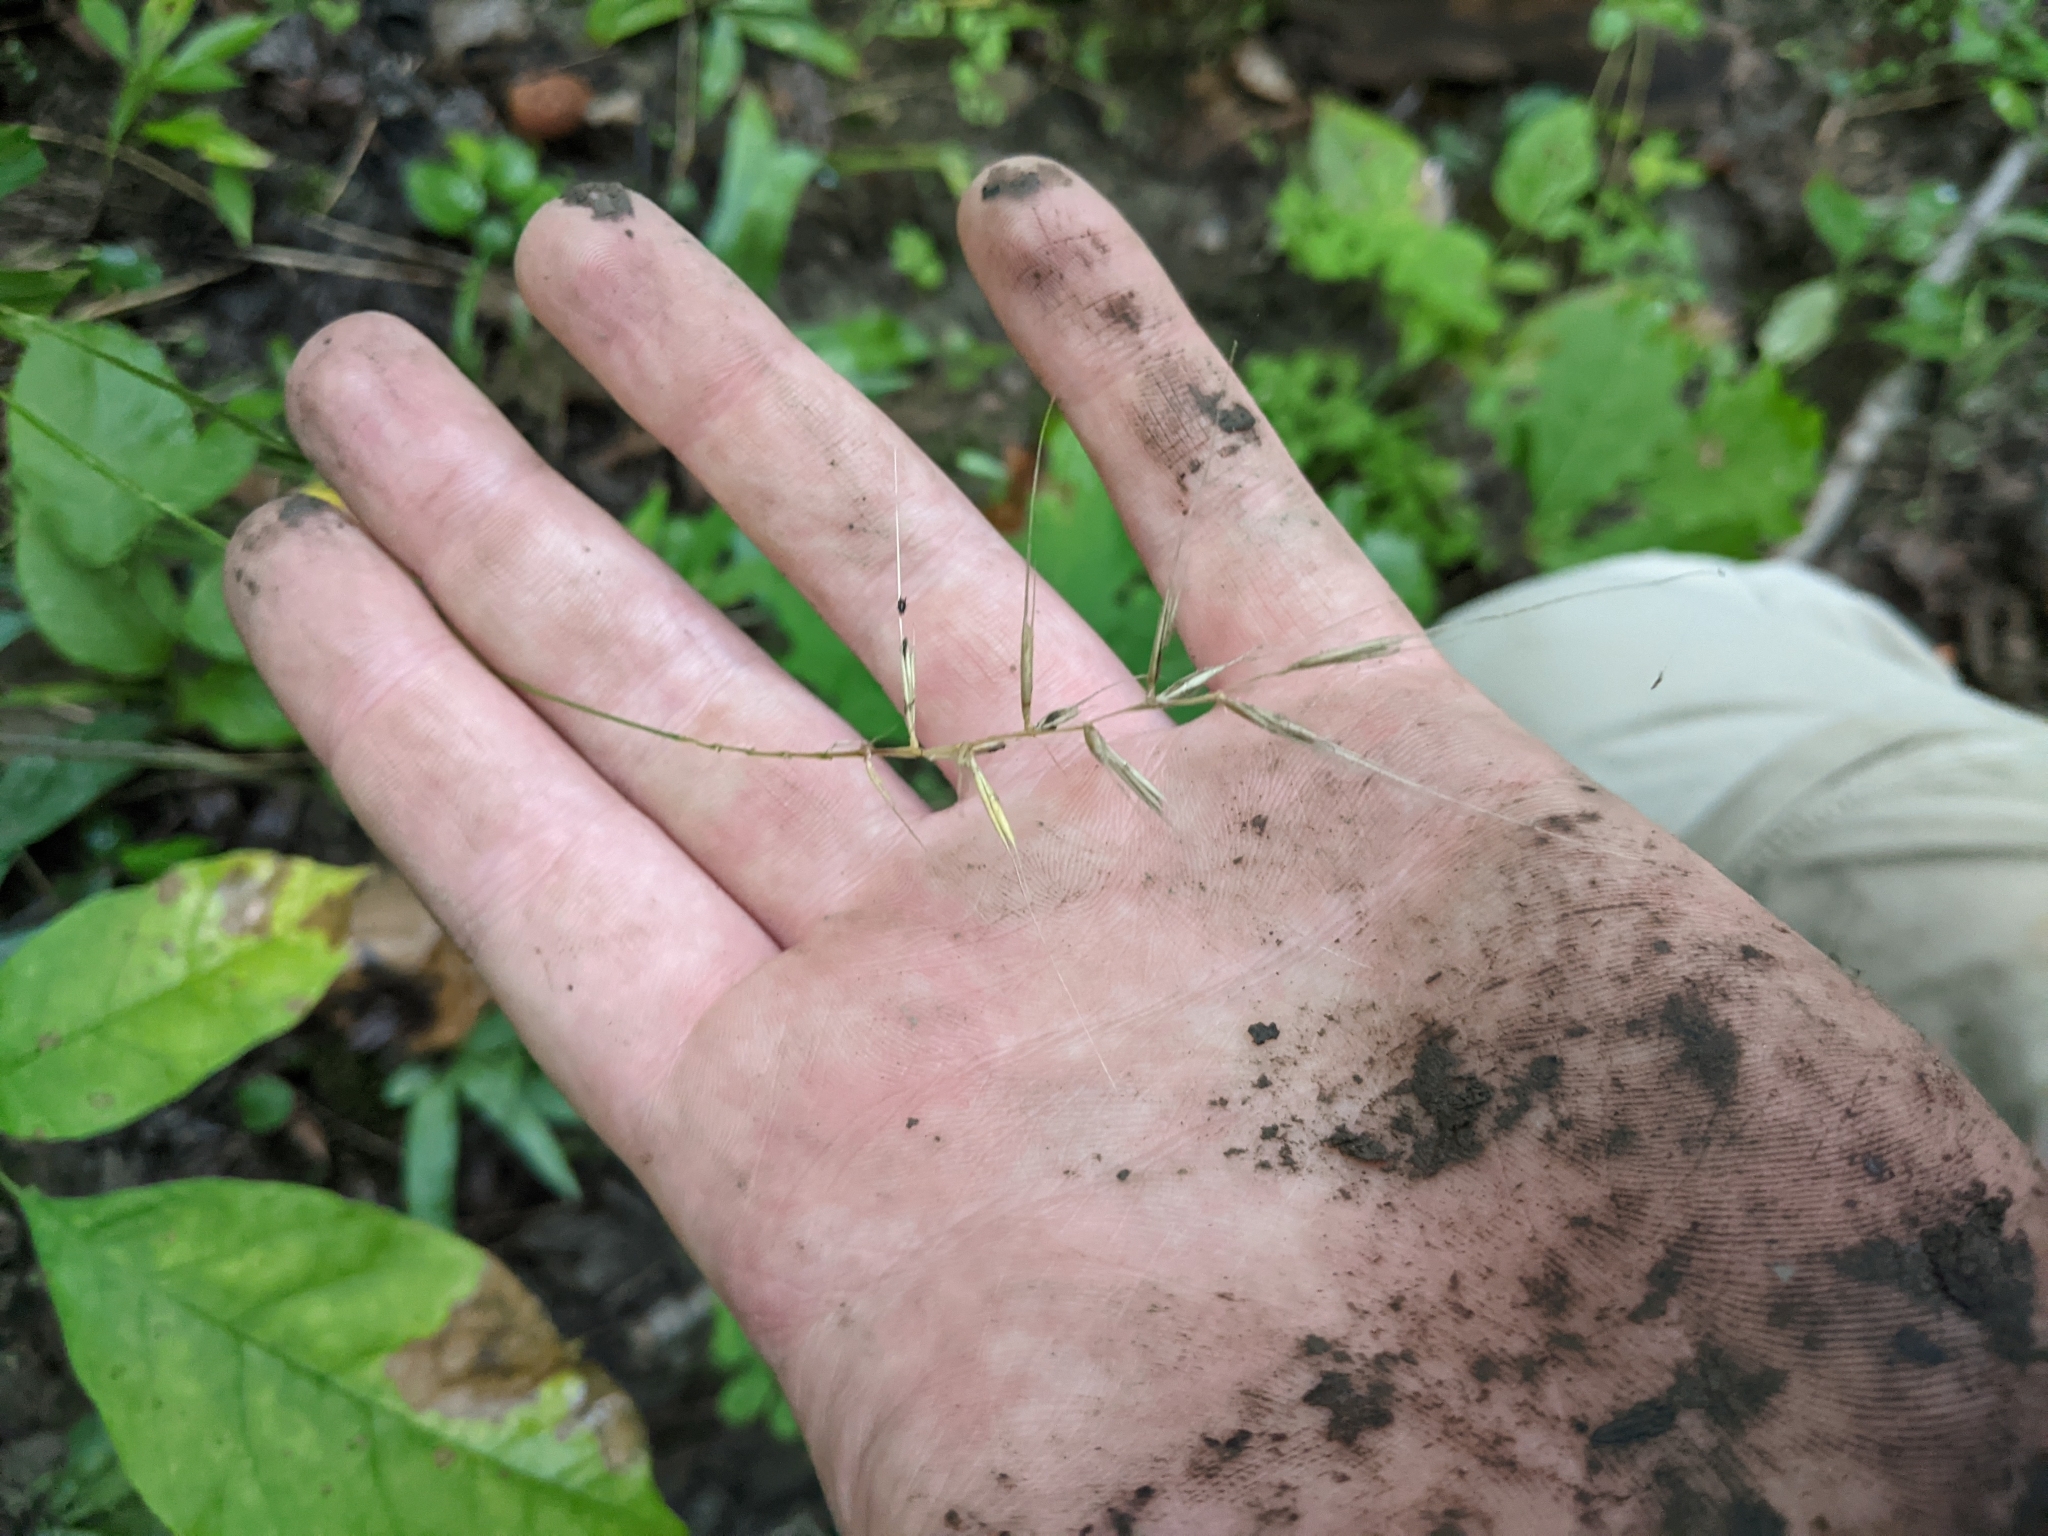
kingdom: Plantae
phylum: Tracheophyta
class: Liliopsida
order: Poales
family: Poaceae
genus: Elymus
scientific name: Elymus hystrix
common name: Bottlebrush grass
